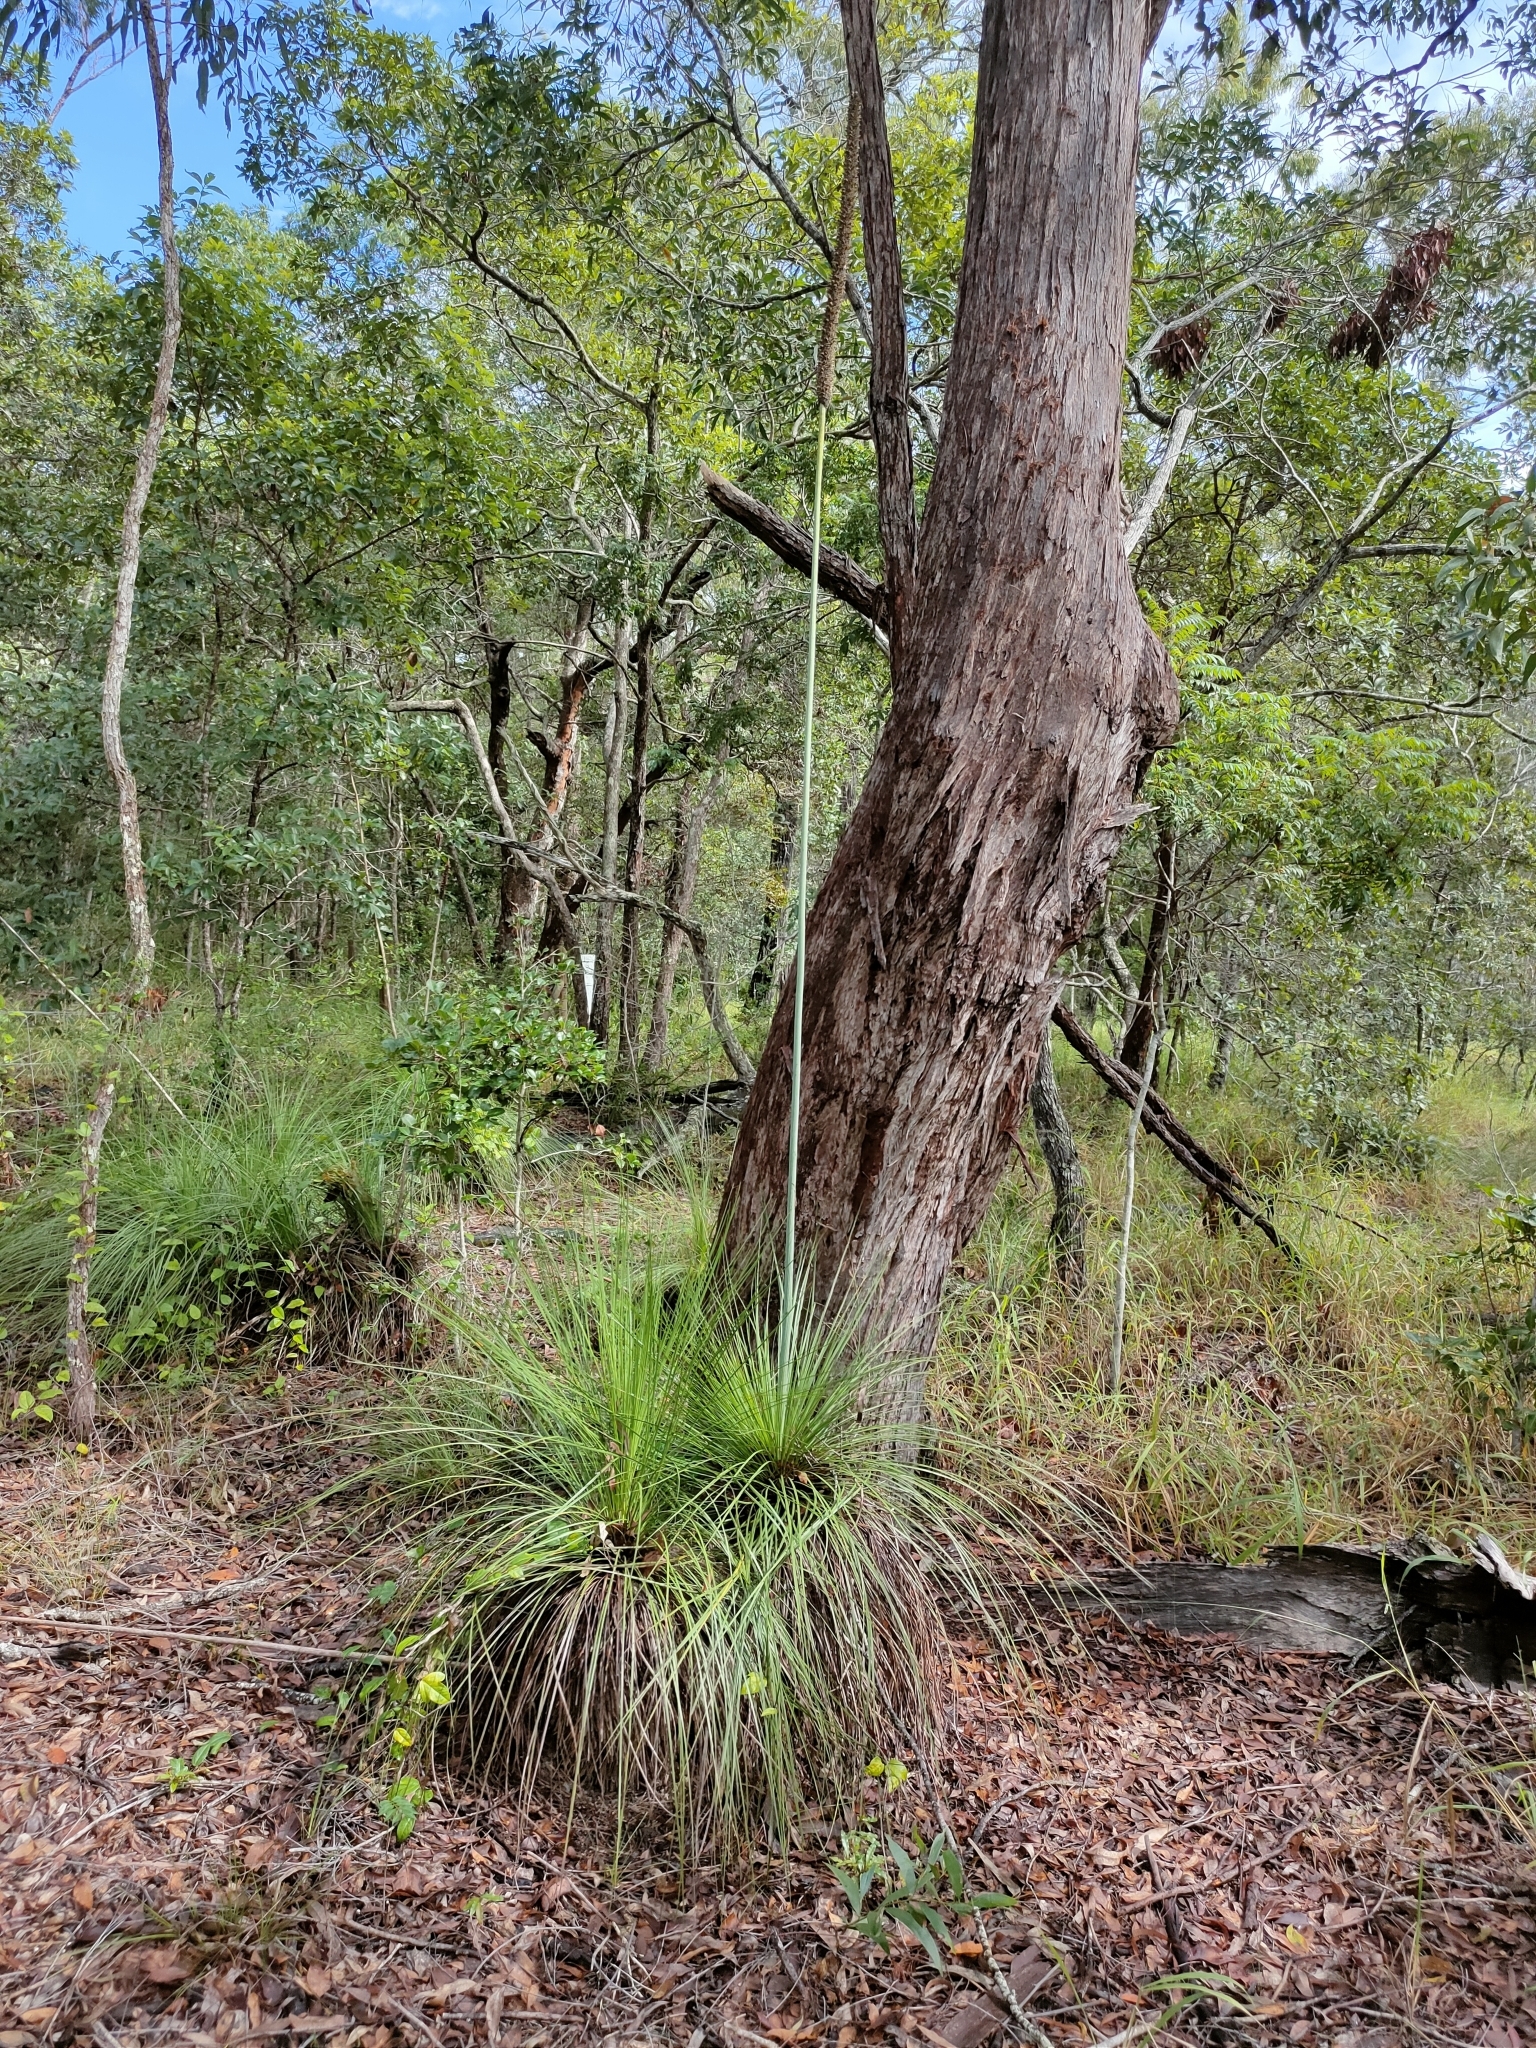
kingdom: Plantae
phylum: Tracheophyta
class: Liliopsida
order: Asparagales
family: Asphodelaceae
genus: Xanthorrhoea
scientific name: Xanthorrhoea latifolia
